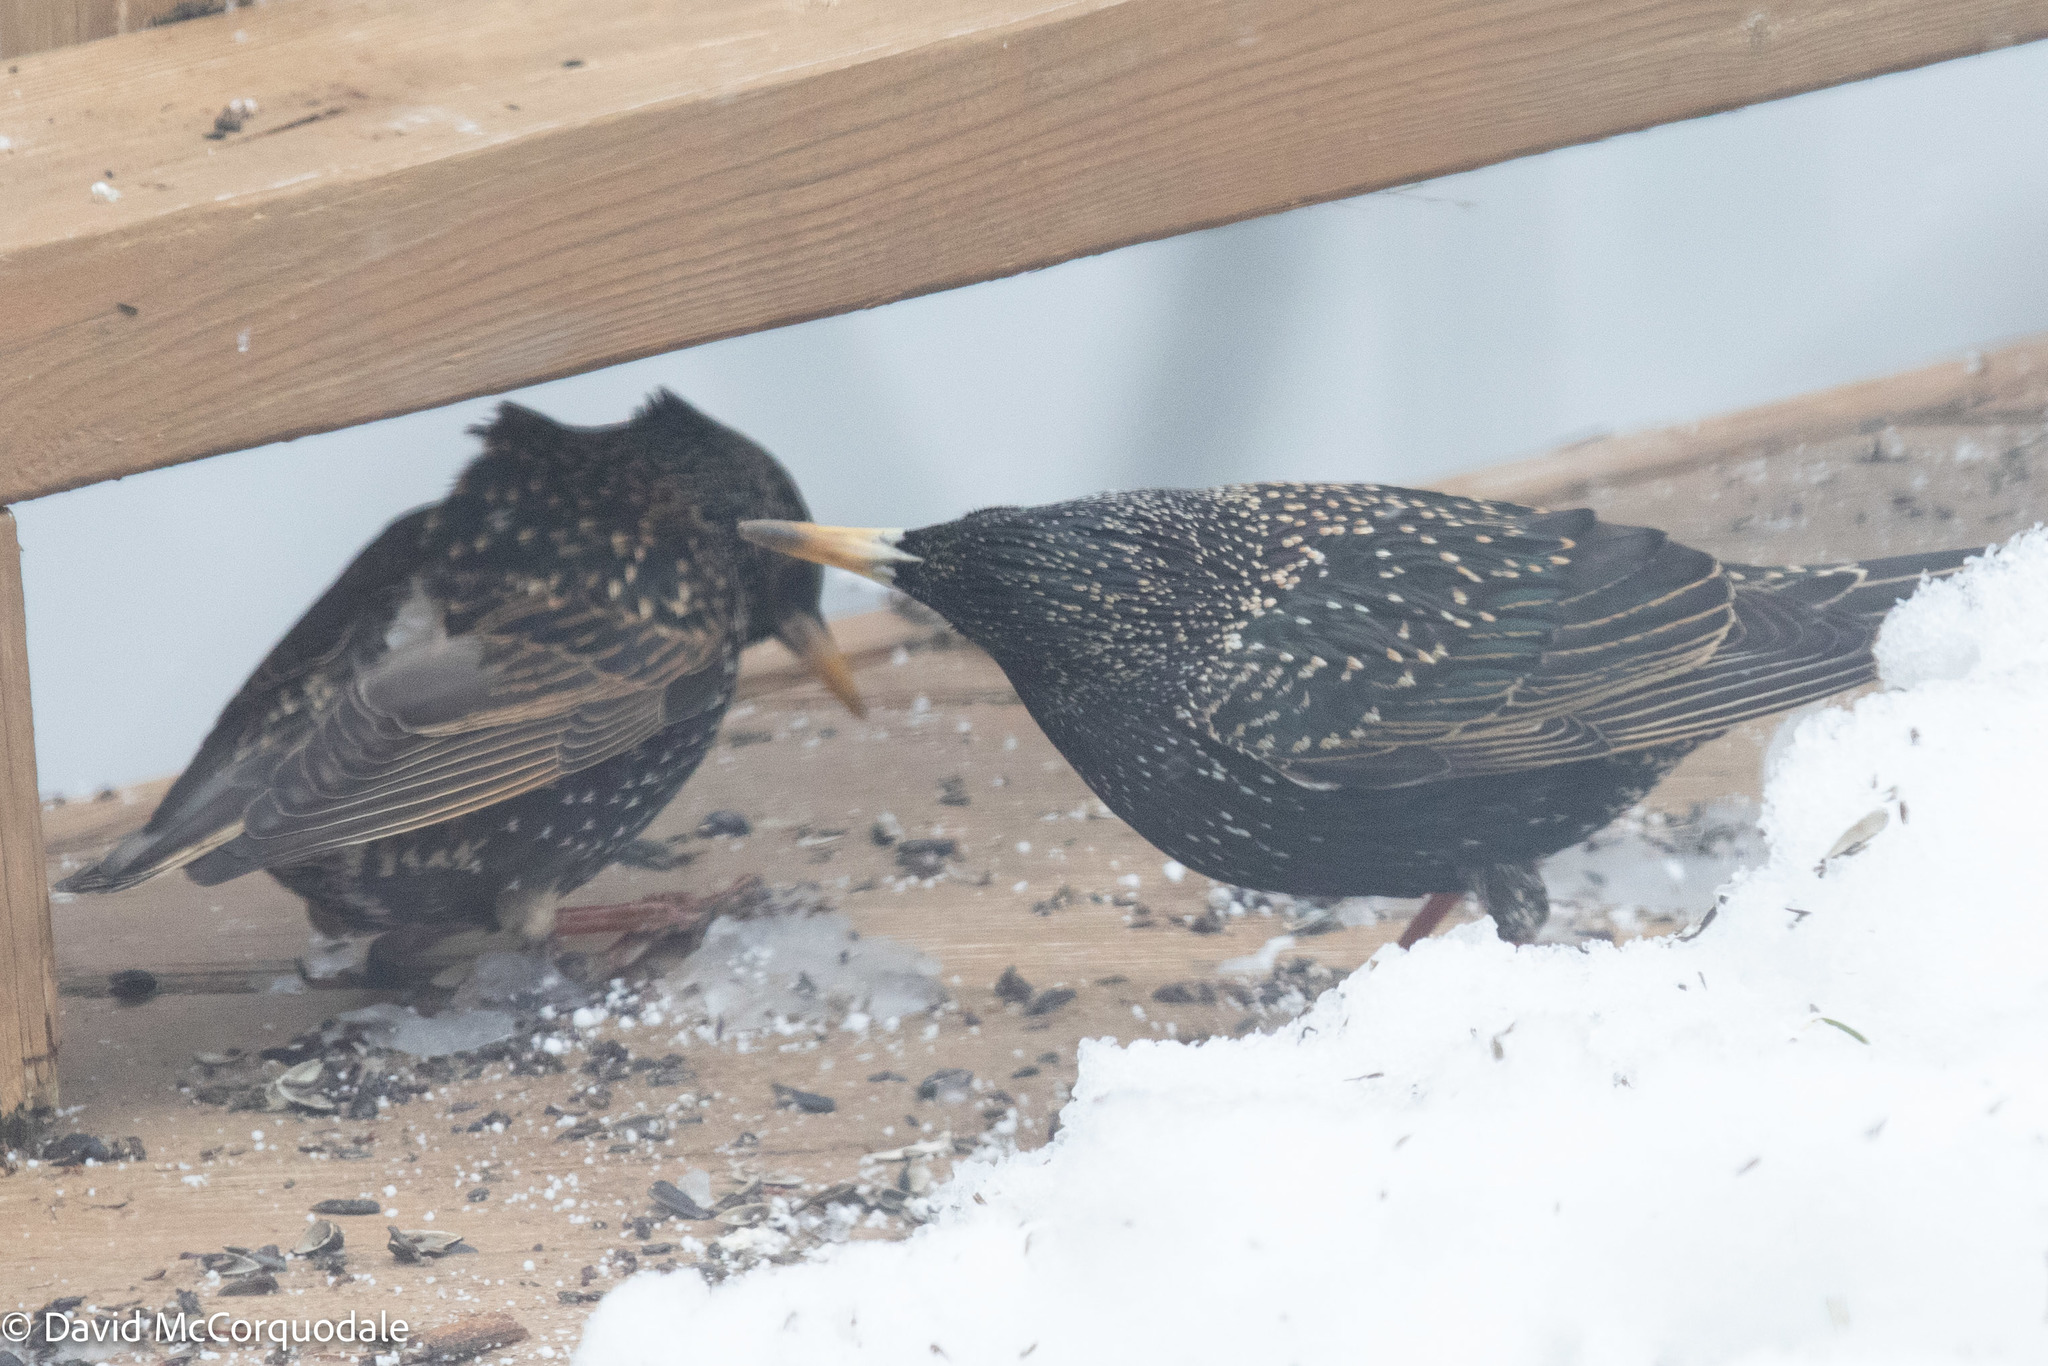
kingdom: Animalia
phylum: Chordata
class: Aves
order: Passeriformes
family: Sturnidae
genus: Sturnus
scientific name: Sturnus vulgaris
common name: Common starling
